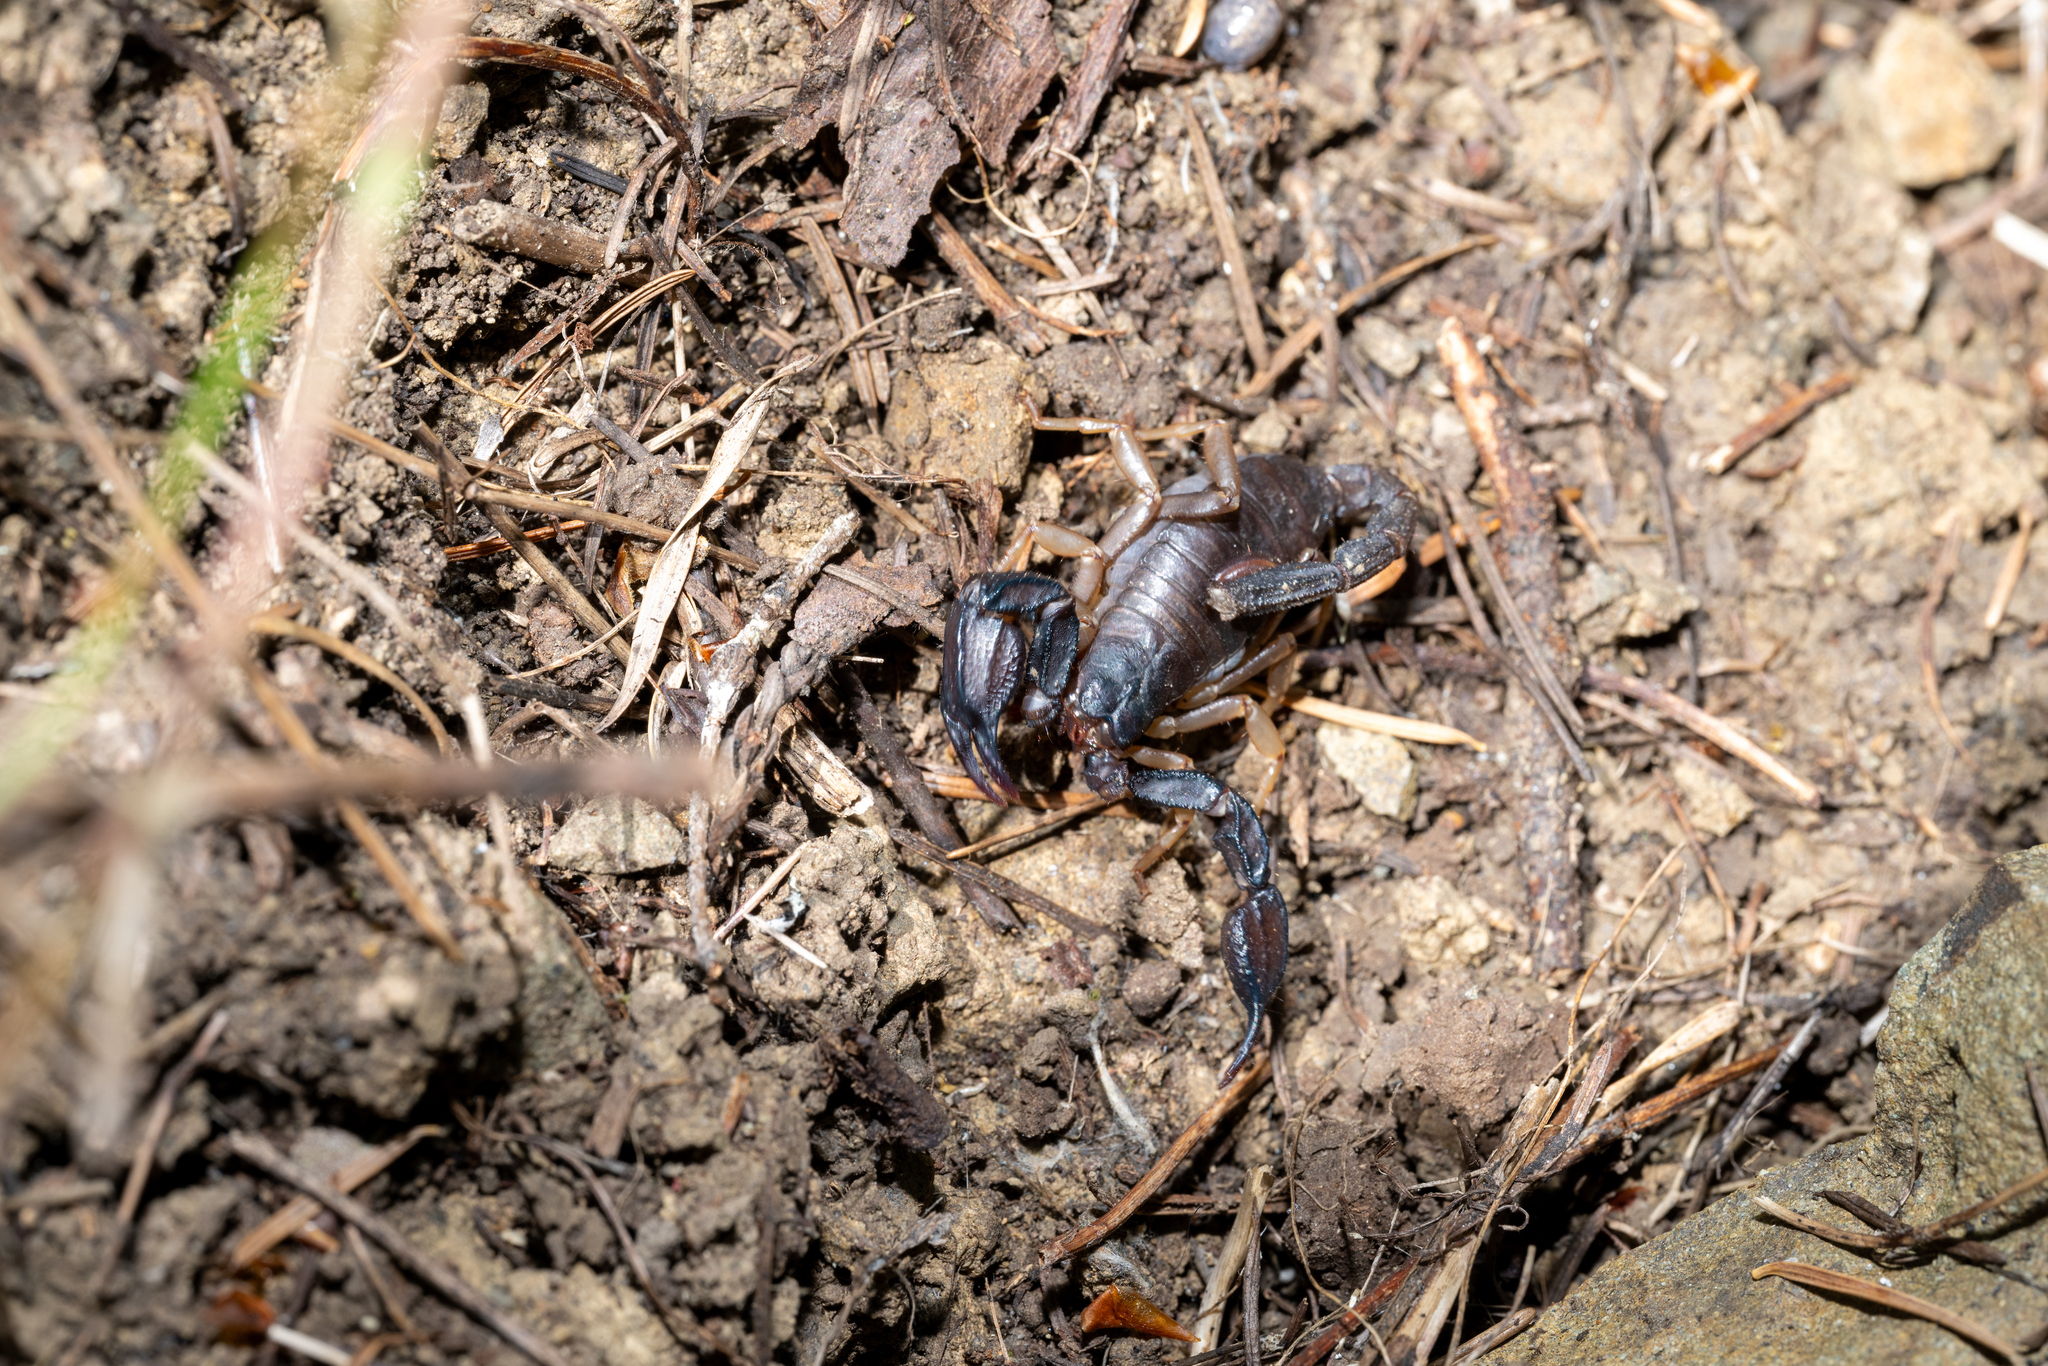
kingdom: Animalia
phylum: Arthropoda
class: Arachnida
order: Scorpiones
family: Chactidae
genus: Uroctonus
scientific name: Uroctonus mordax
